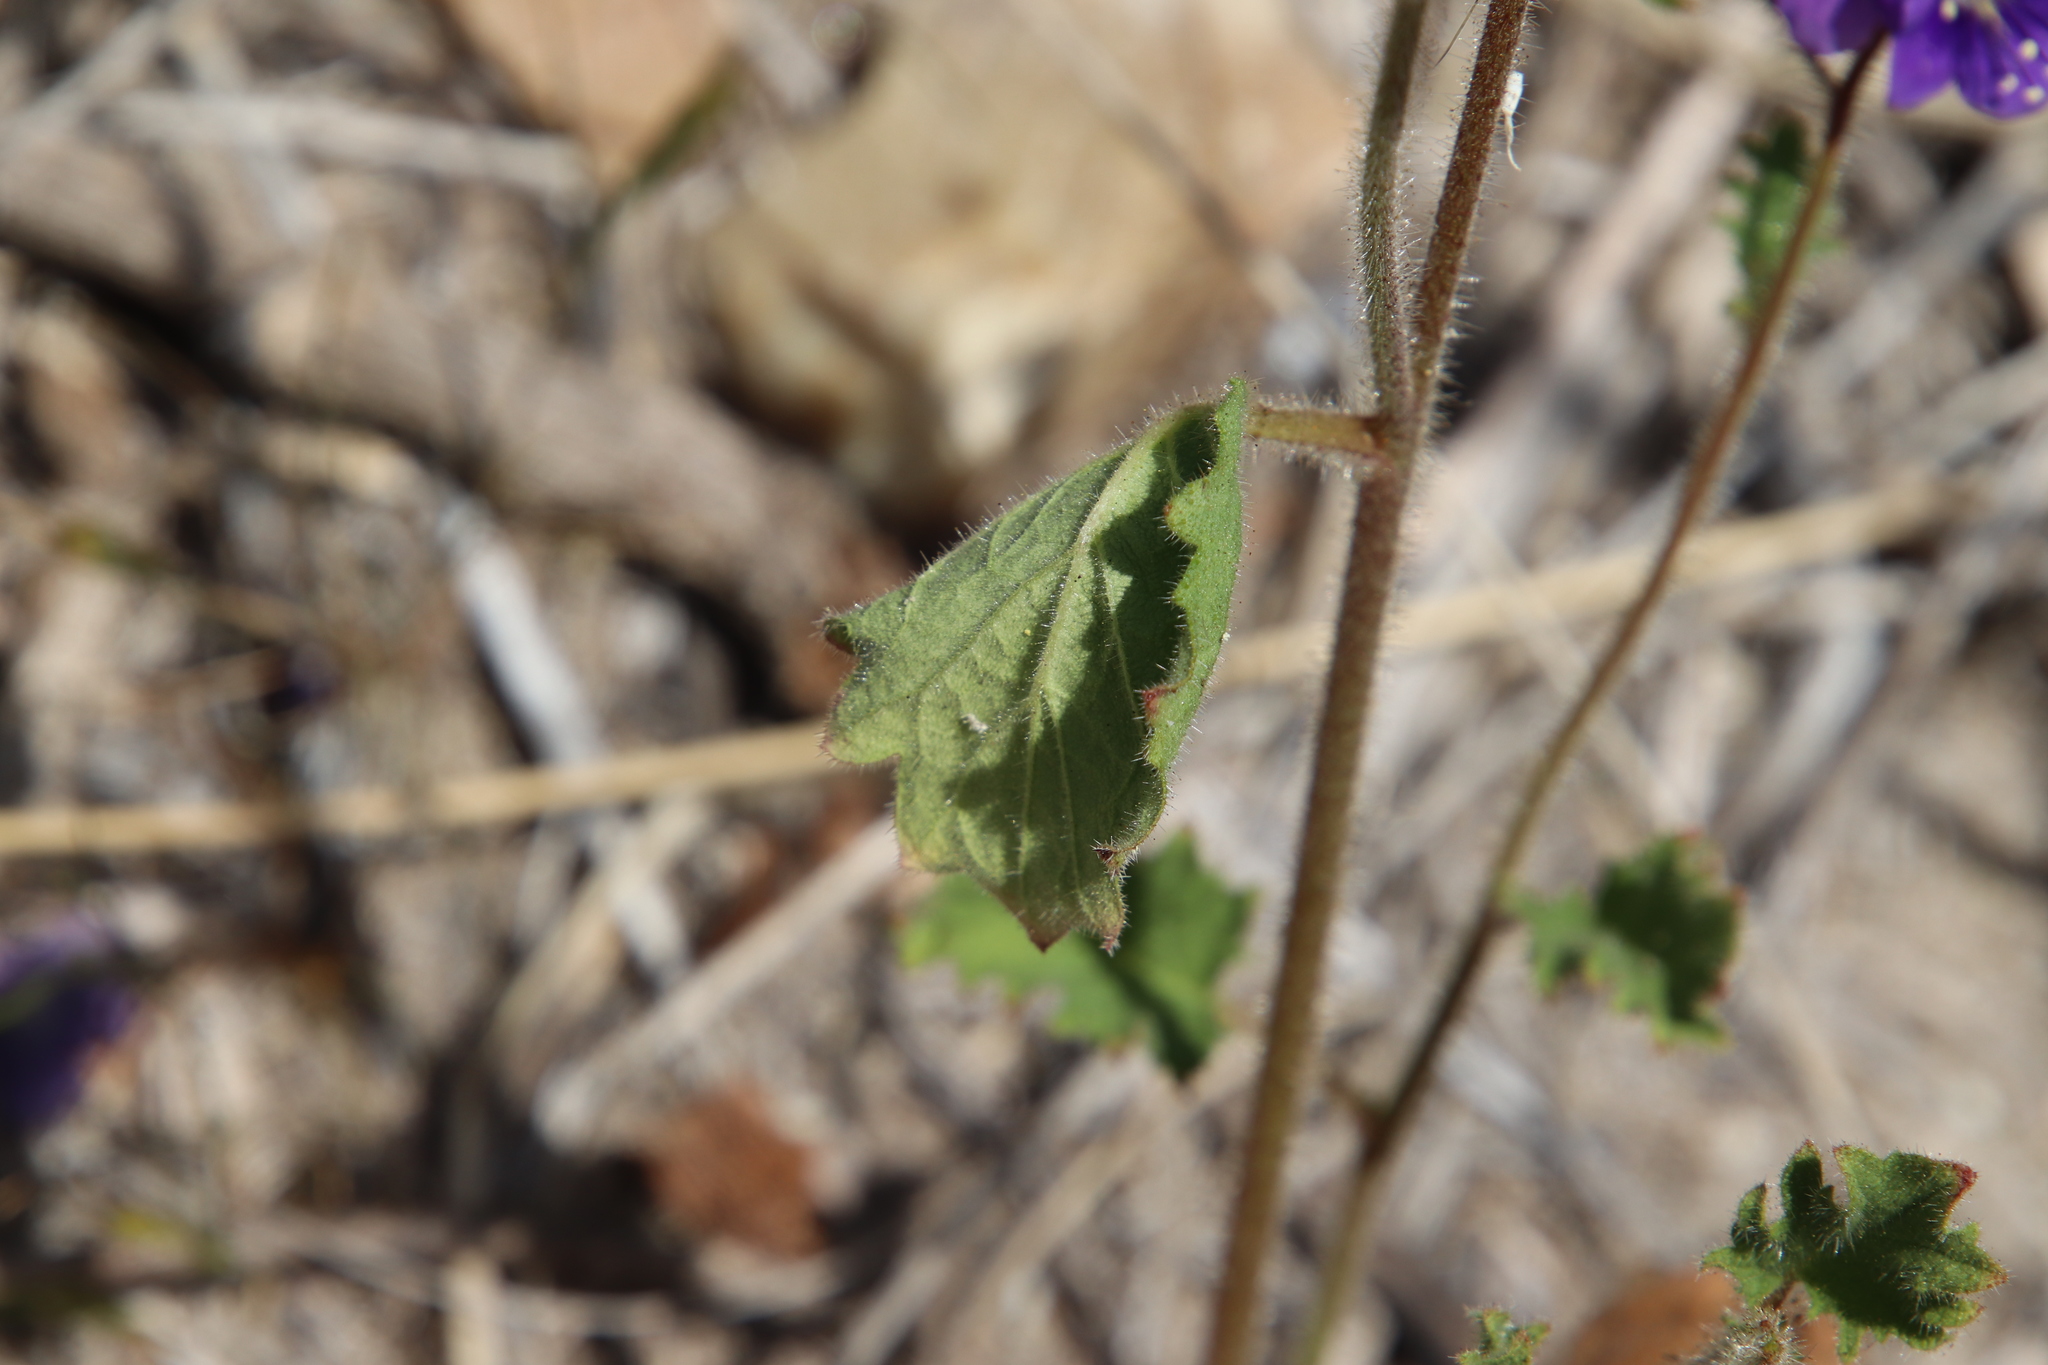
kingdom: Plantae
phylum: Tracheophyta
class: Magnoliopsida
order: Boraginales
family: Hydrophyllaceae
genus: Phacelia
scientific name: Phacelia parryi
